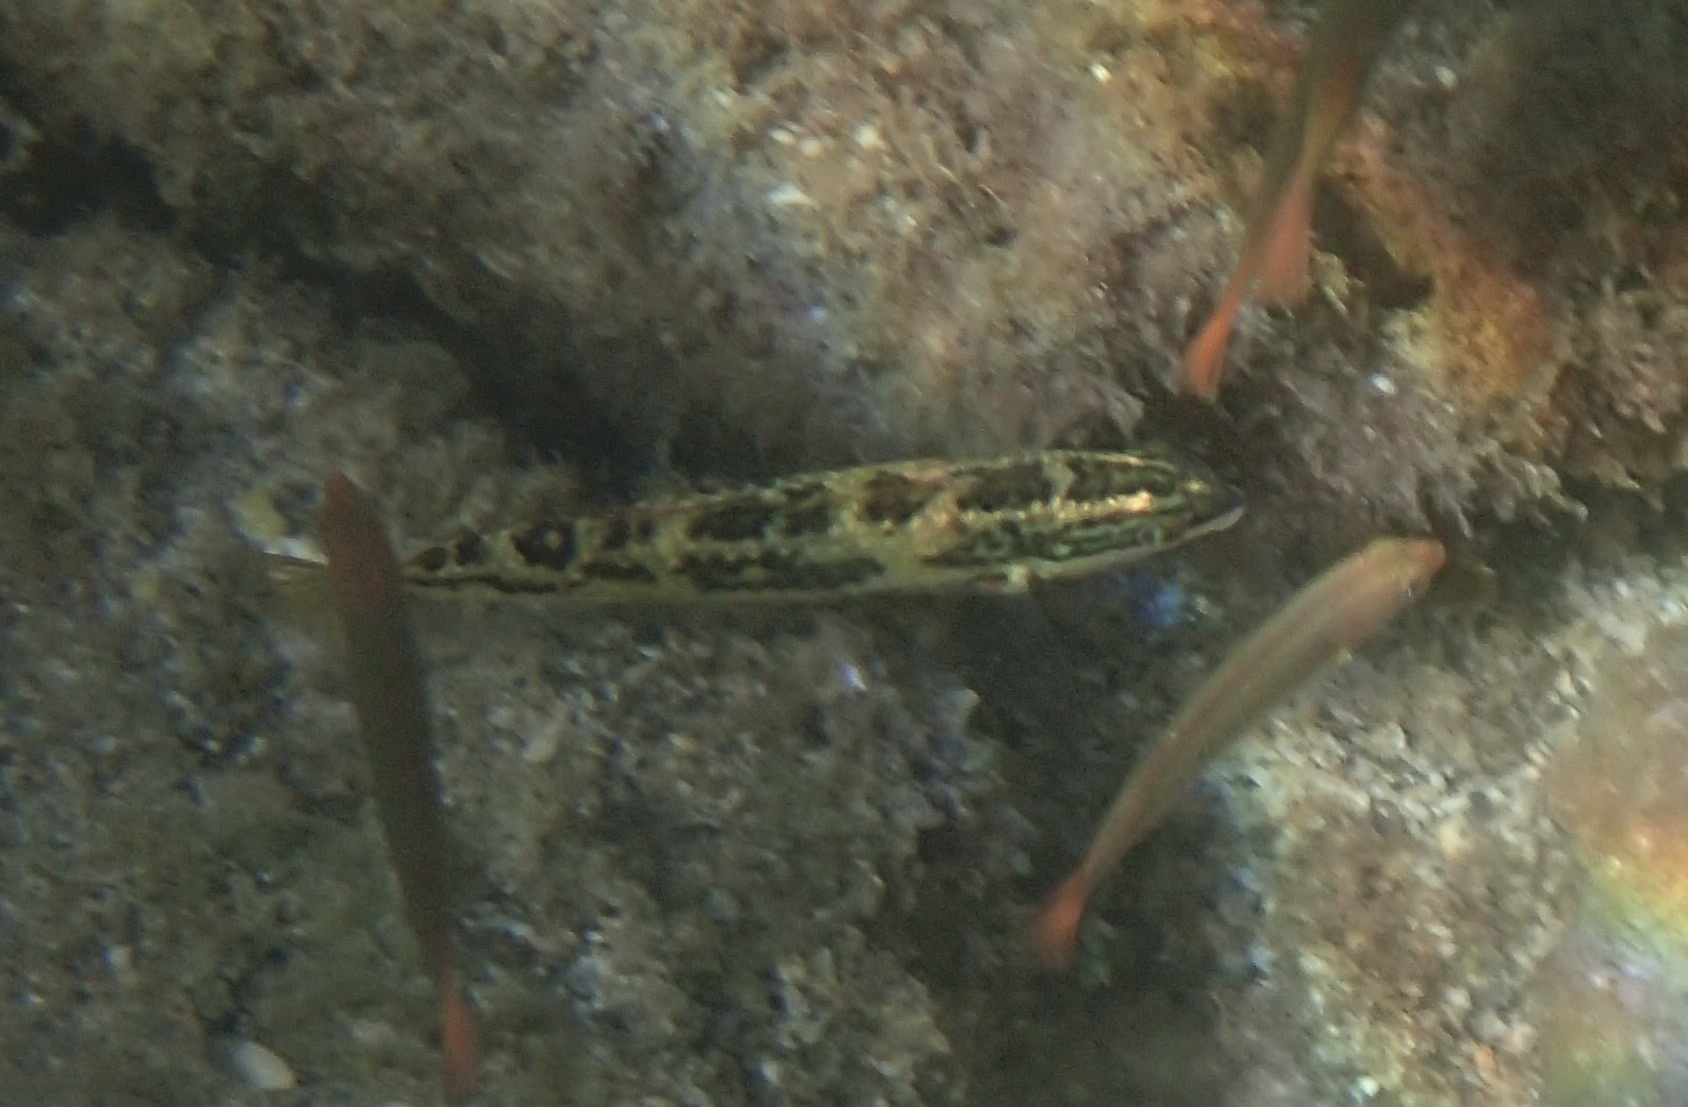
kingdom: Animalia
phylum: Chordata
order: Perciformes
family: Labridae
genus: Halichoeres
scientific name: Halichoeres nicholsi
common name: Spinster wrasse
